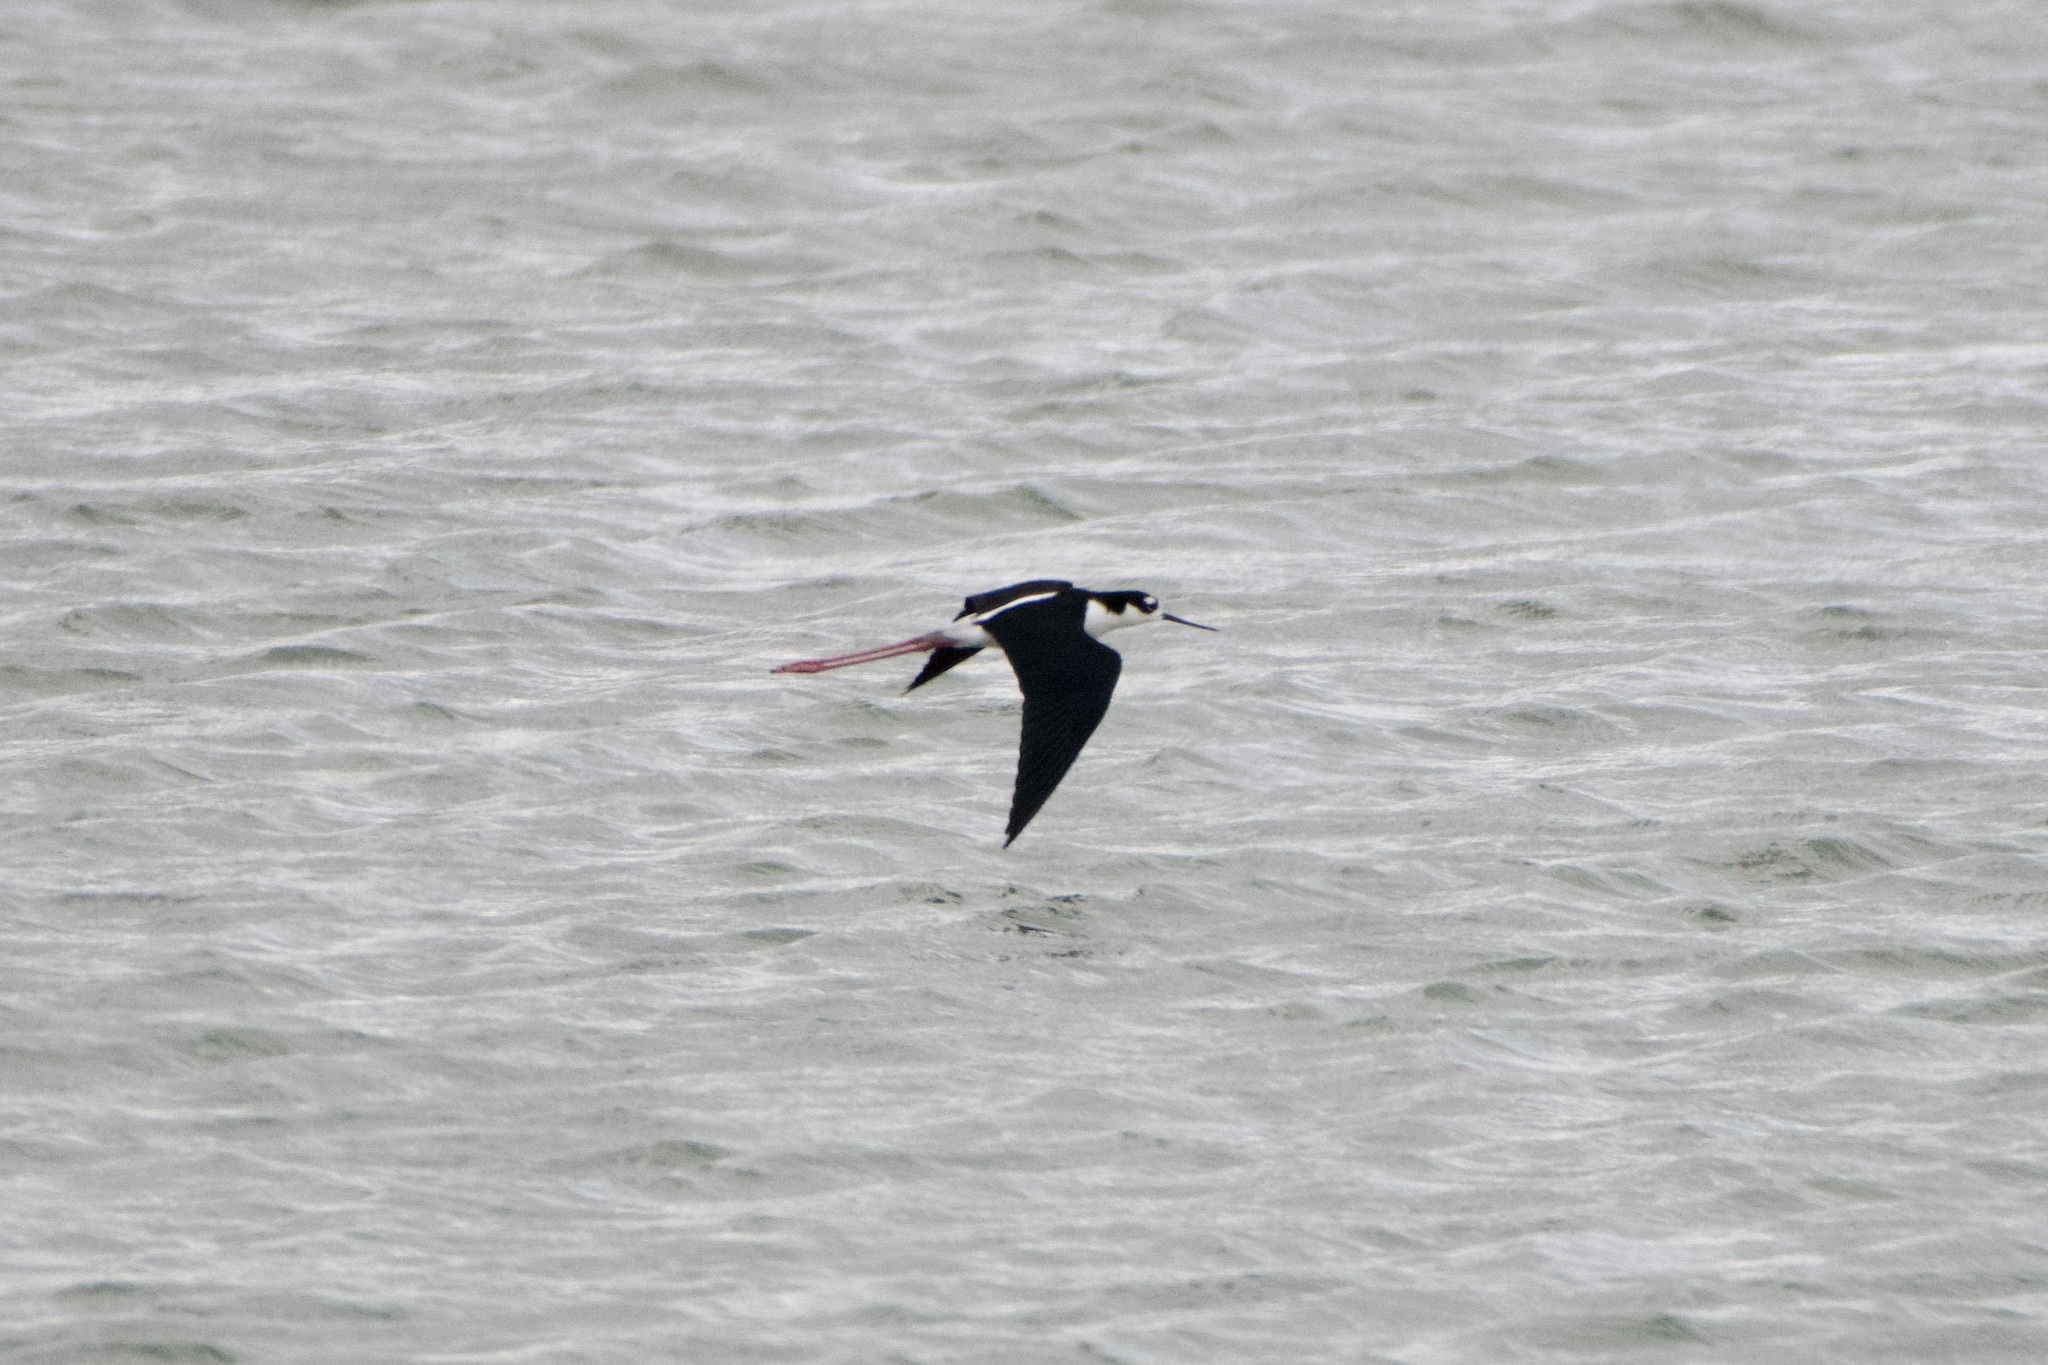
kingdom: Animalia
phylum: Chordata
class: Aves
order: Charadriiformes
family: Recurvirostridae
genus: Himantopus
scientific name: Himantopus mexicanus
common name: Black-necked stilt
